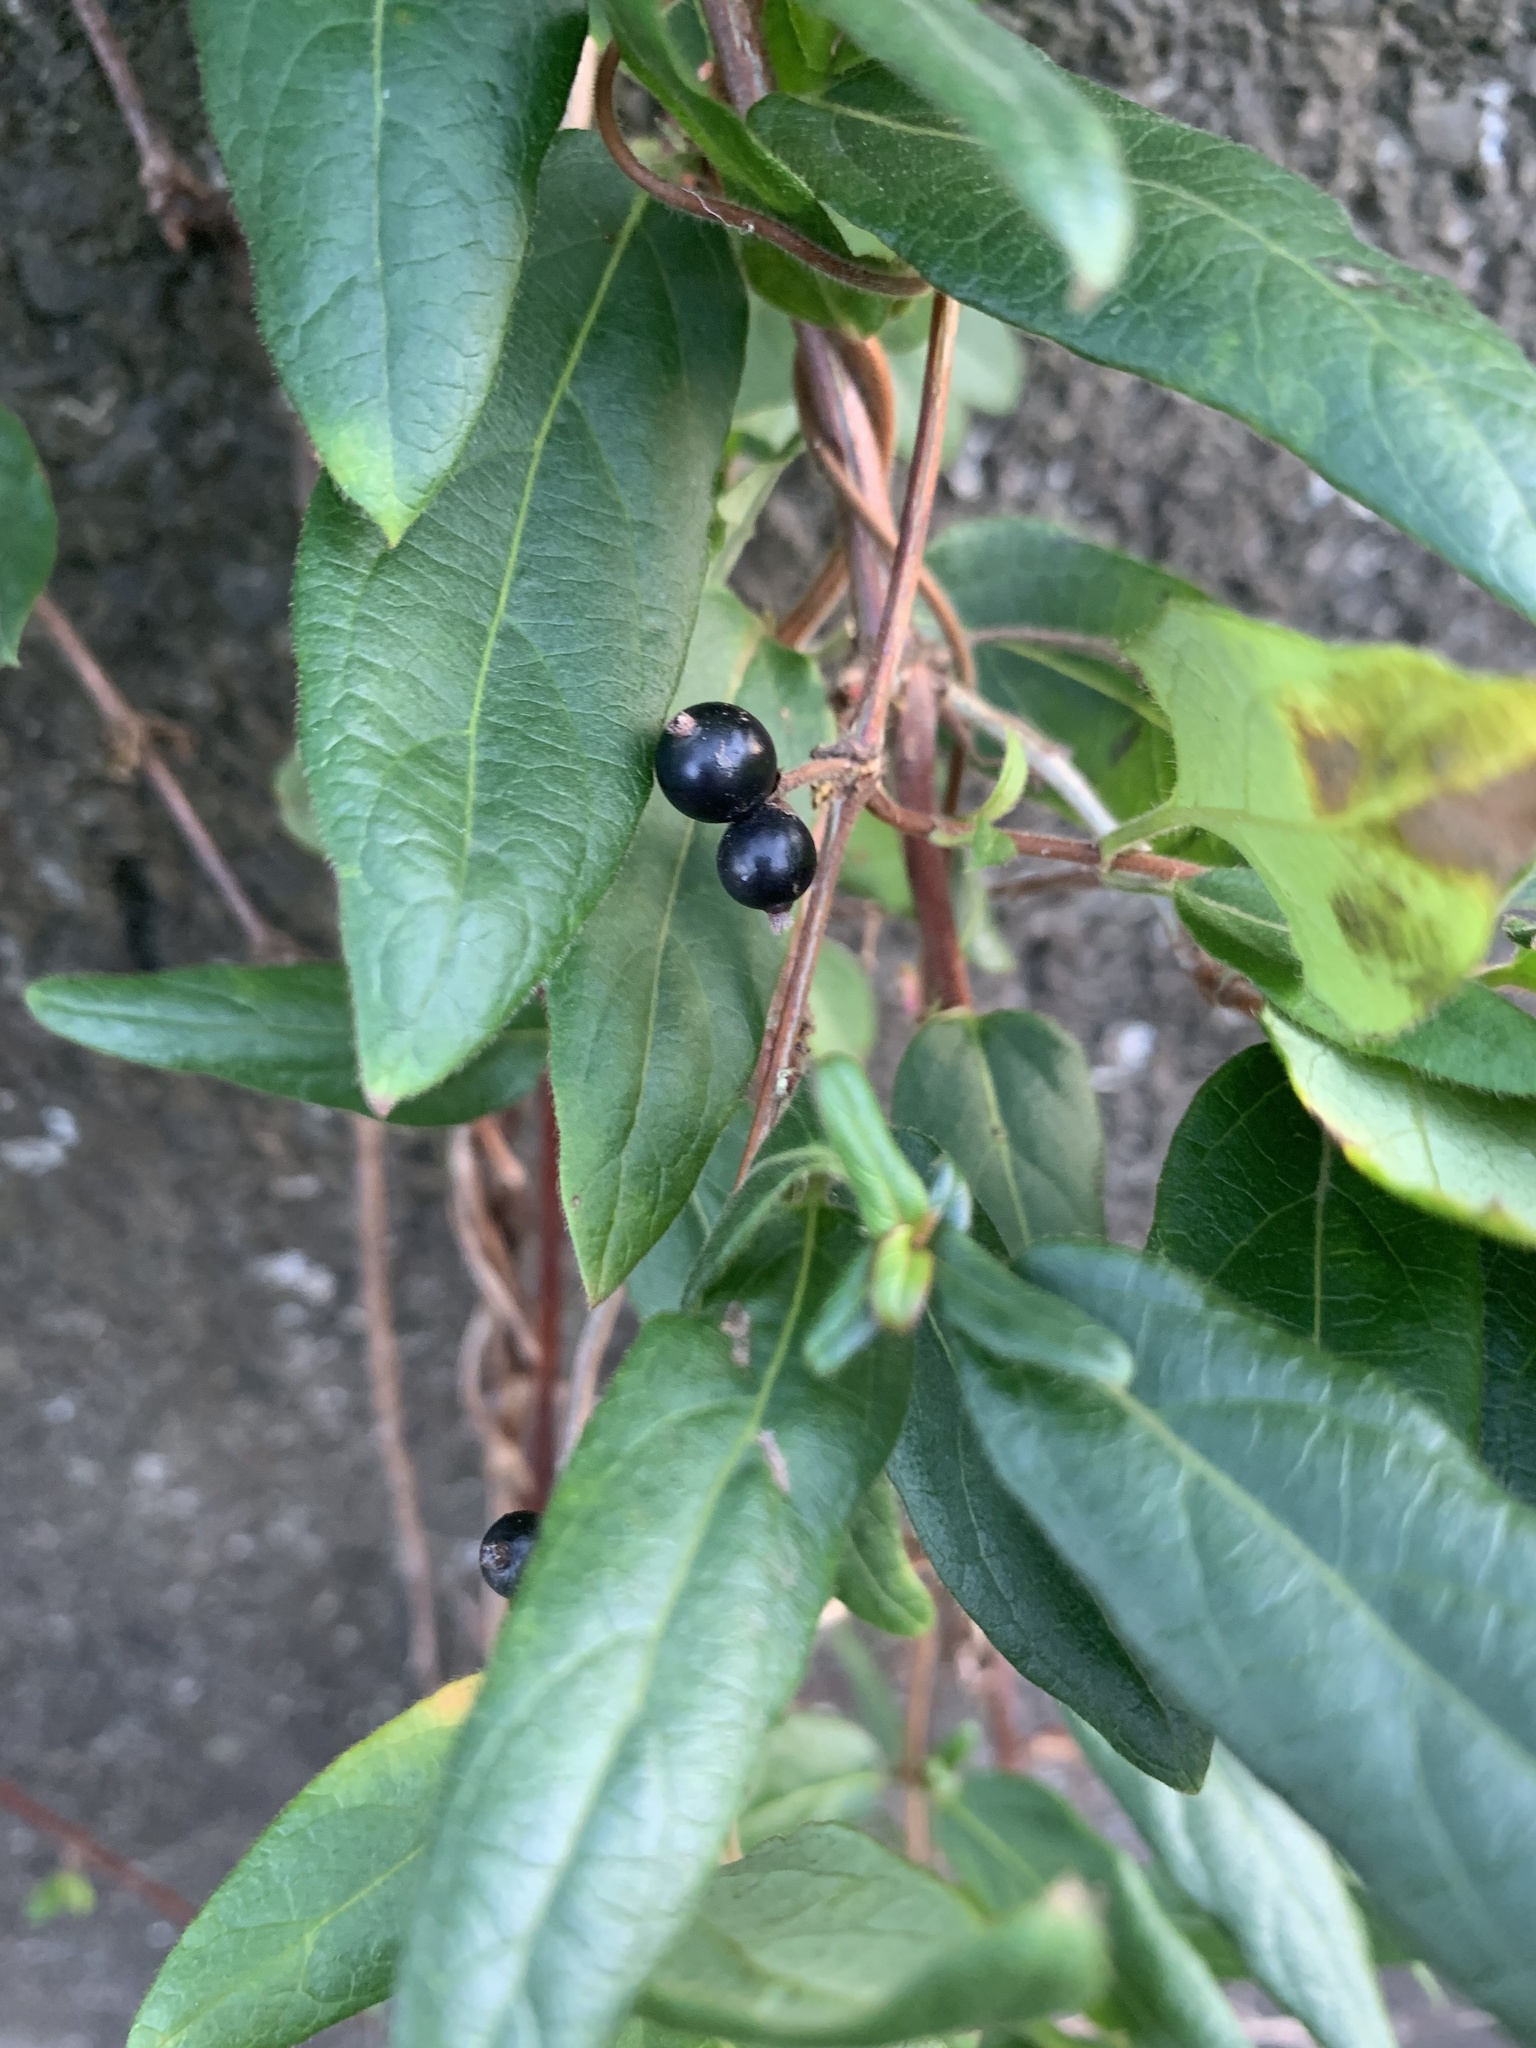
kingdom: Plantae
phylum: Tracheophyta
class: Magnoliopsida
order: Dipsacales
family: Caprifoliaceae
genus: Lonicera
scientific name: Lonicera japonica
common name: Japanese honeysuckle
